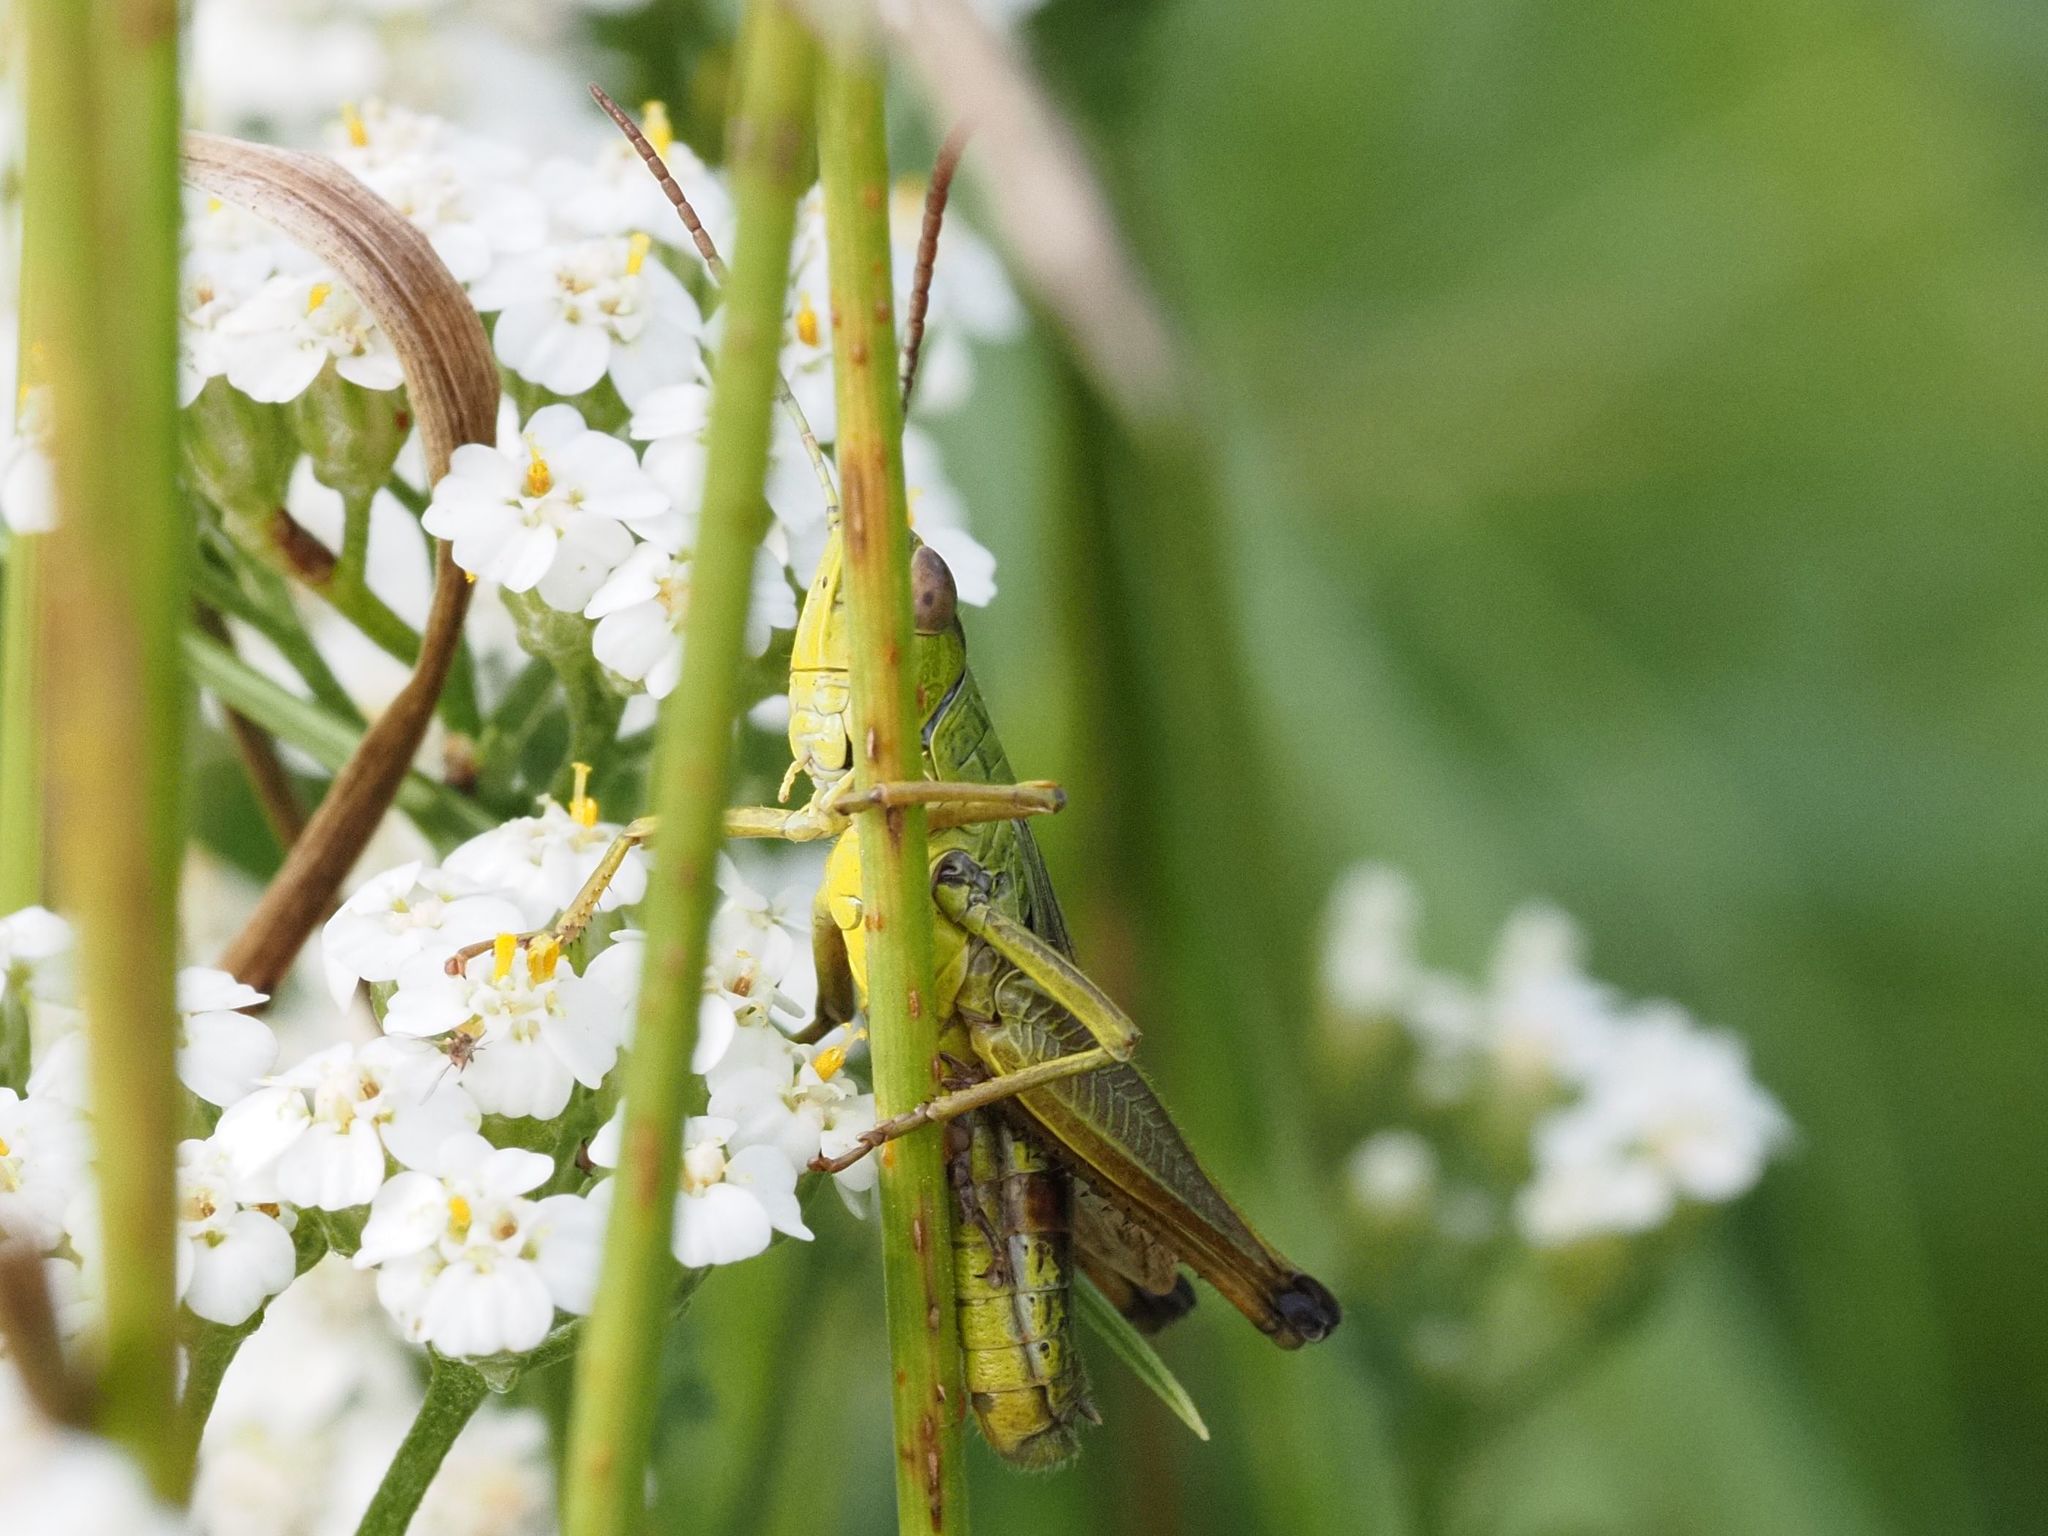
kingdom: Animalia
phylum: Arthropoda
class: Insecta
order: Orthoptera
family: Acrididae
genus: Pseudochorthippus
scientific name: Pseudochorthippus parallelus
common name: Meadow grasshopper
